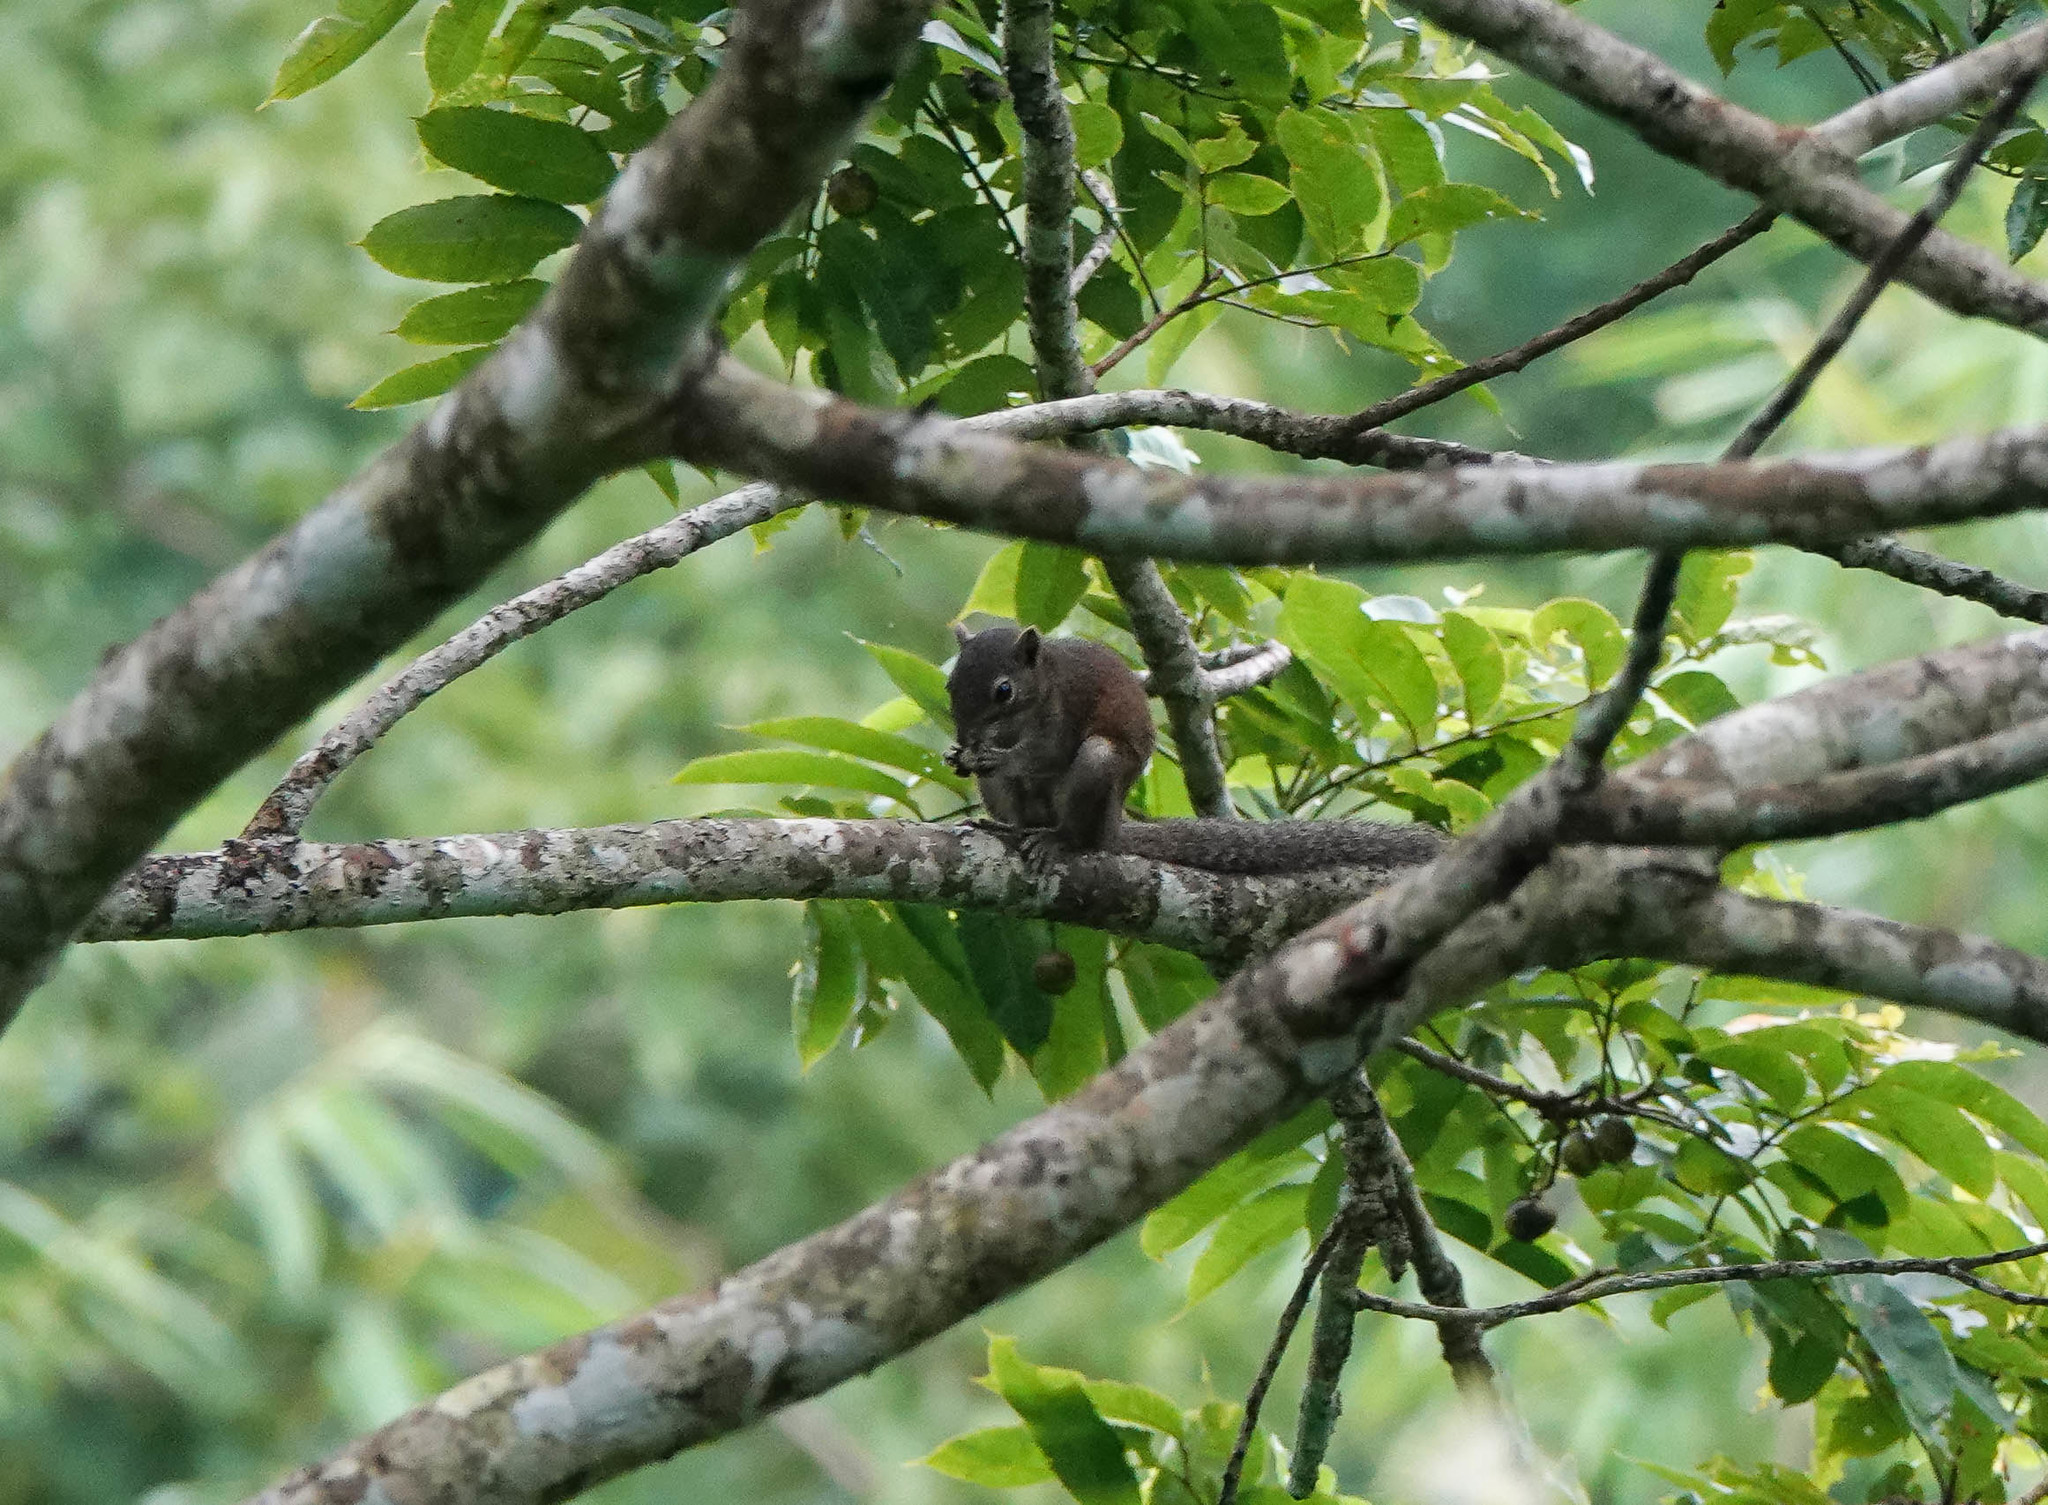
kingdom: Animalia
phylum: Chordata
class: Mammalia
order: Rodentia
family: Sciuridae
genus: Callosciurus
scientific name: Callosciurus pygerythrus
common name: Irrawaddy squirrel
